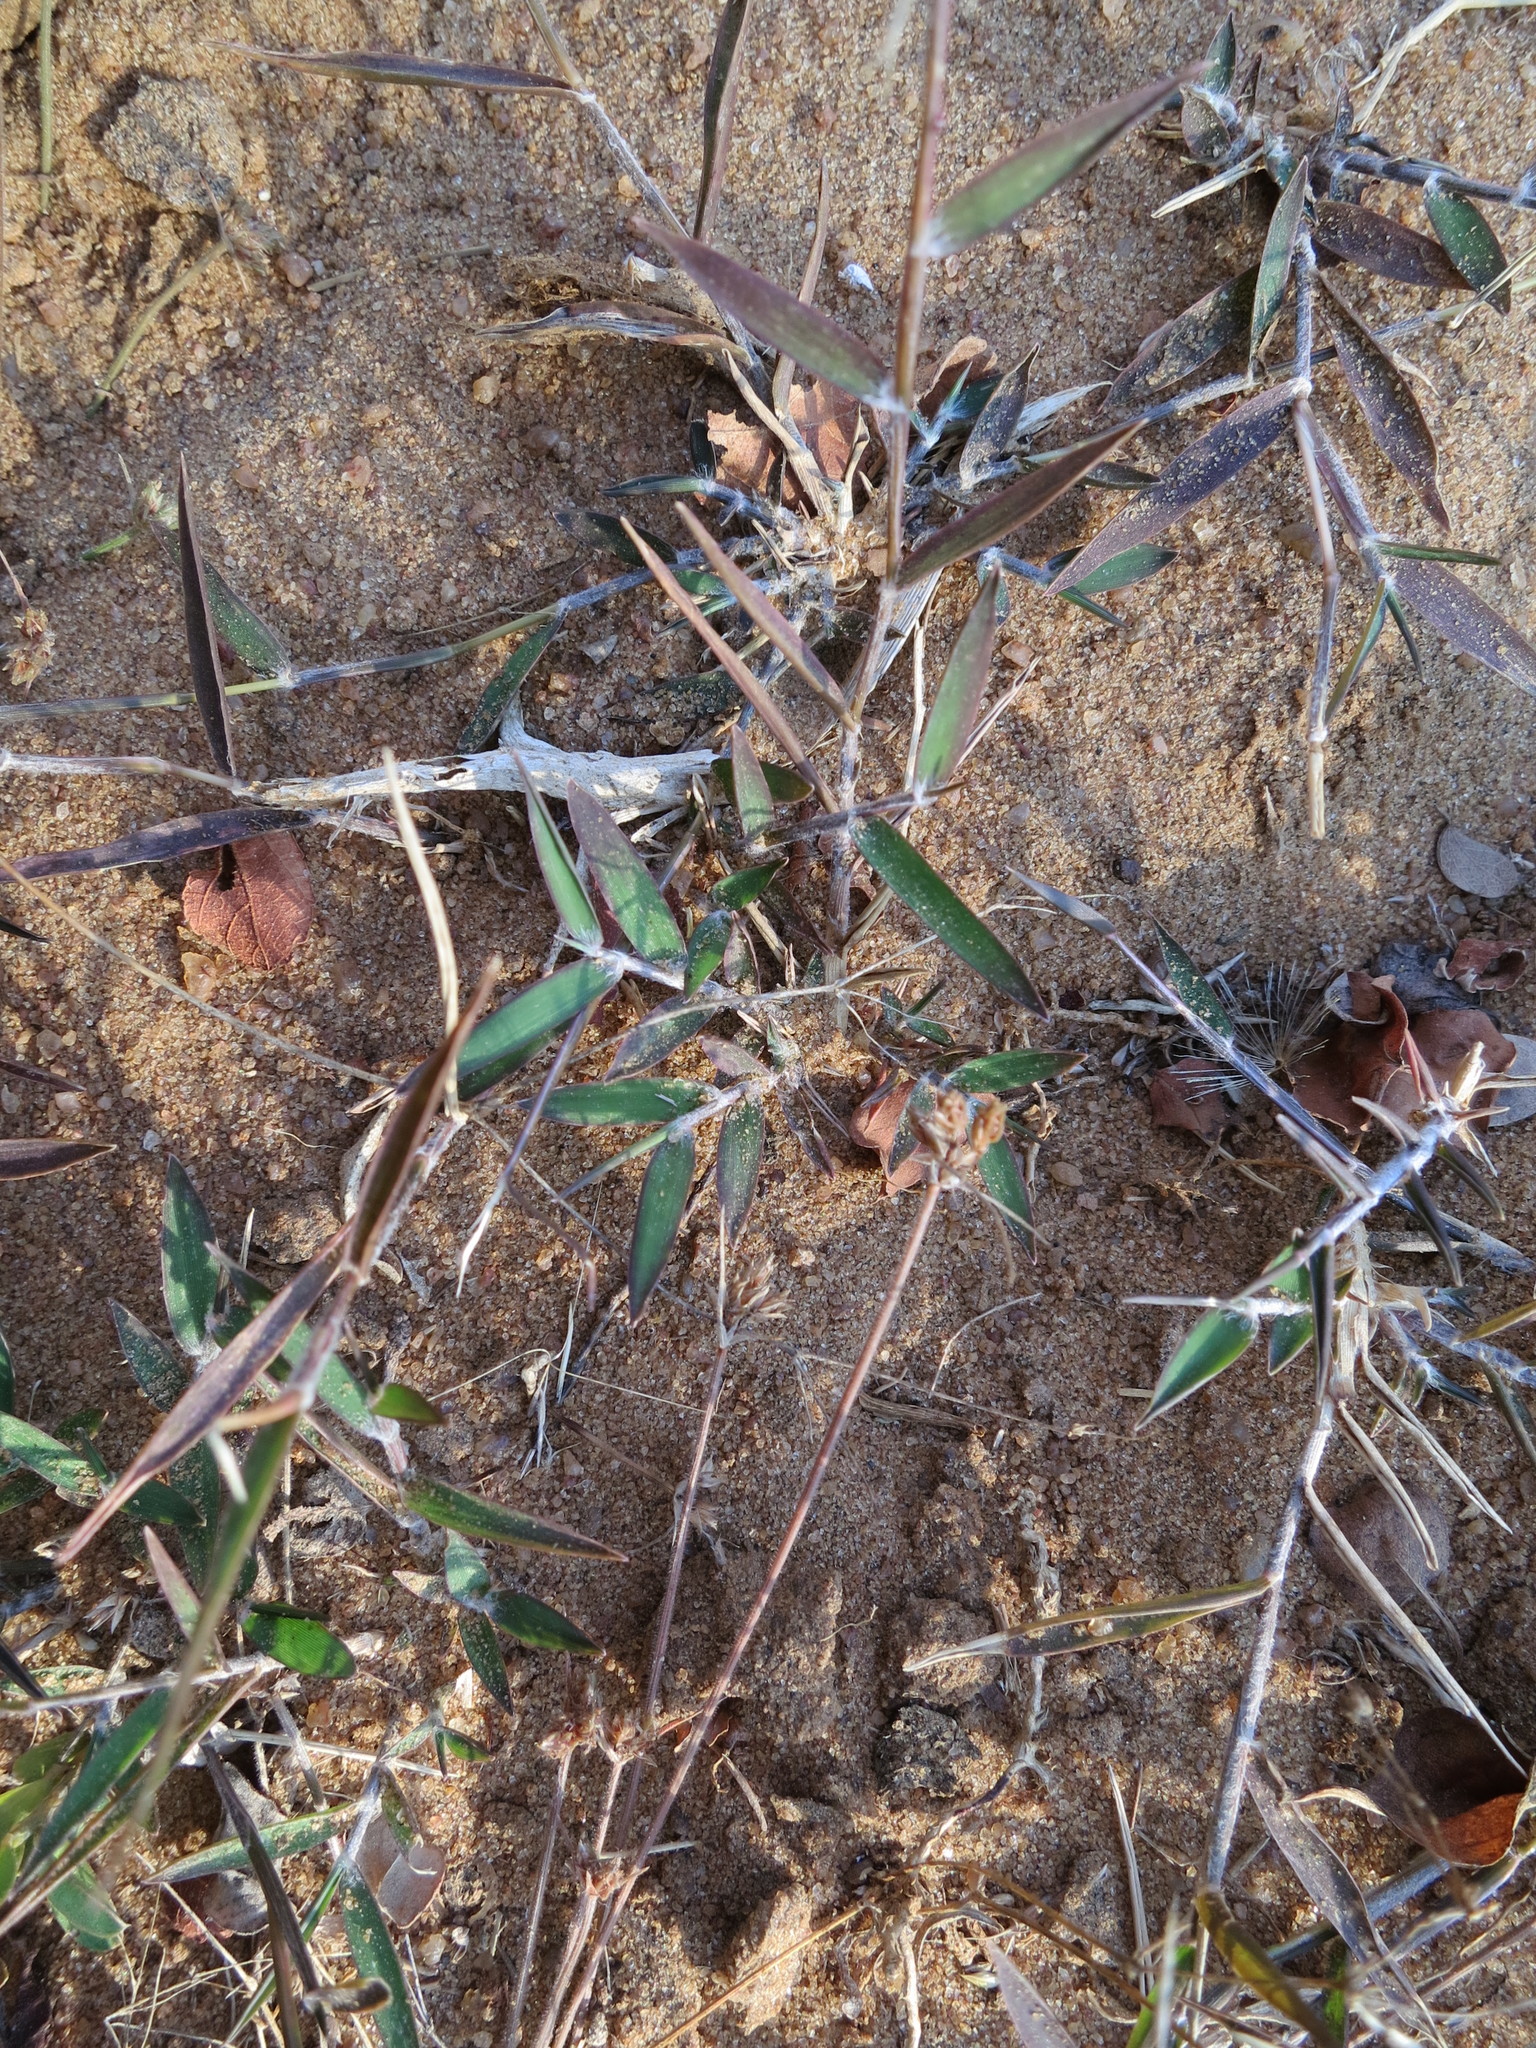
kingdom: Plantae
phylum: Tracheophyta
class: Liliopsida
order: Poales
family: Poaceae
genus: Decaryella
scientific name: Decaryella madagascariensis
